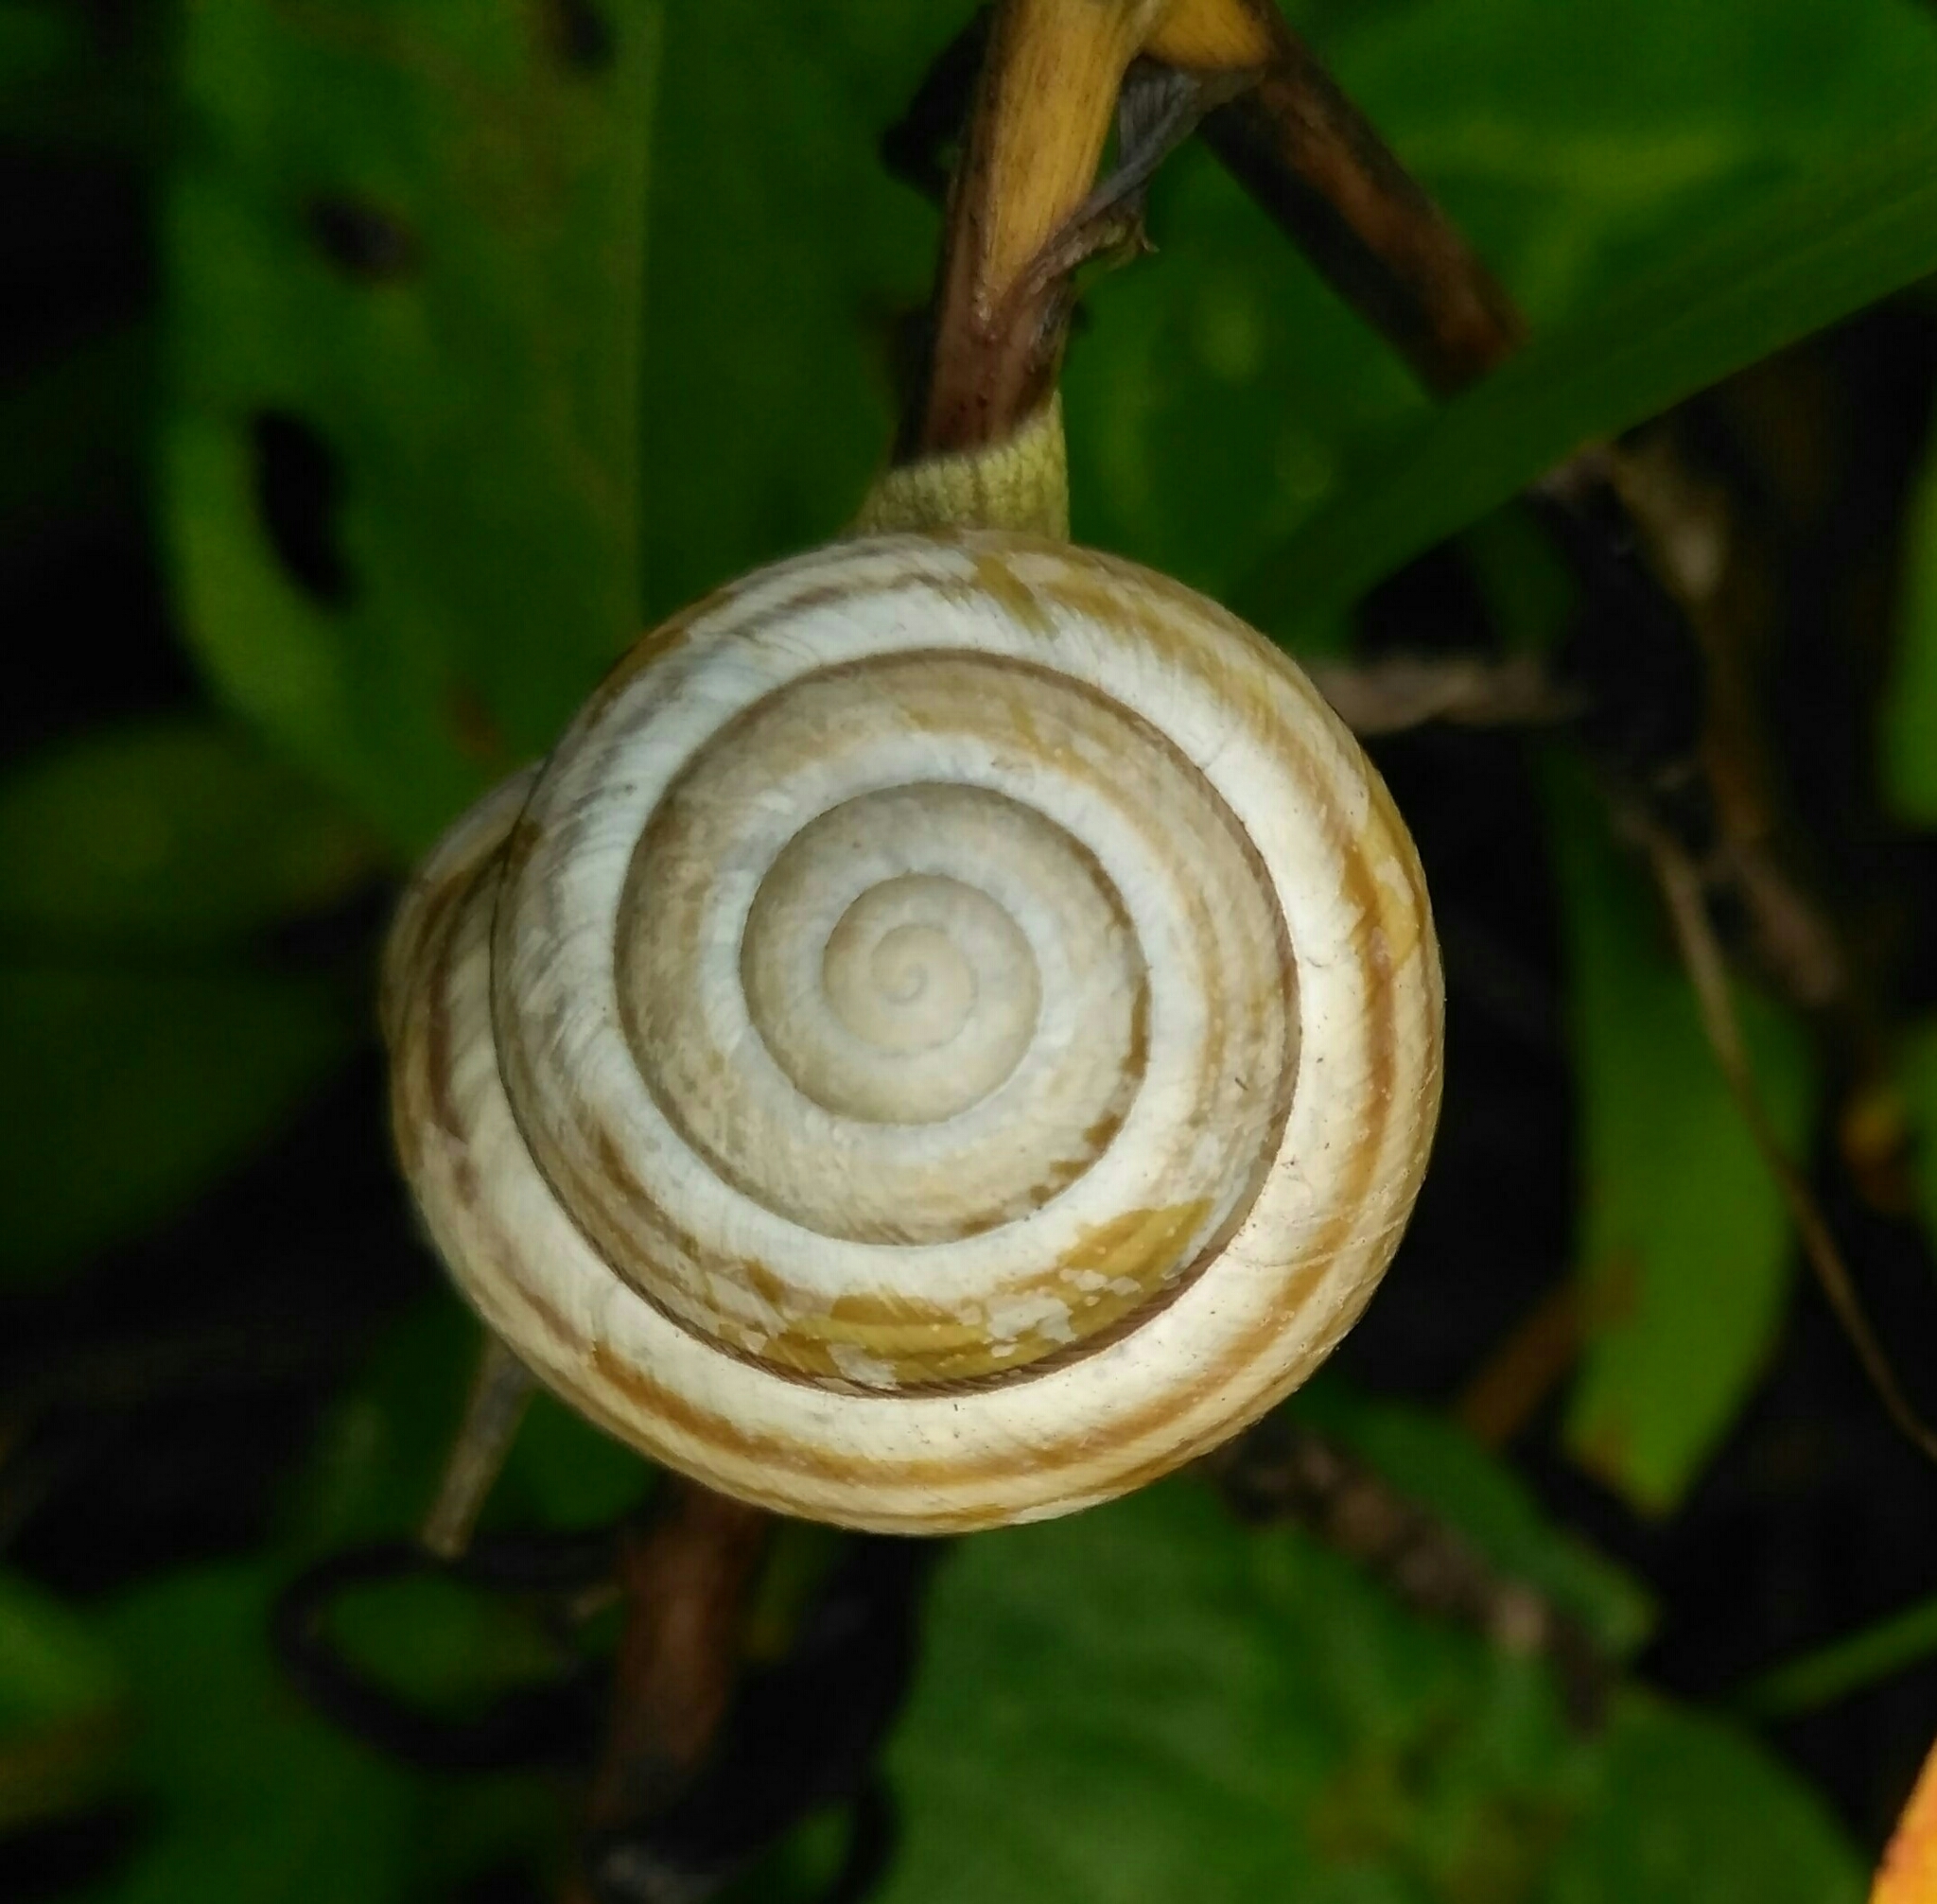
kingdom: Animalia
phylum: Mollusca
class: Gastropoda
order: Stylommatophora
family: Helicidae
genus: Caucasotachea
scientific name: Caucasotachea vindobonensis
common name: European helicid land snail
